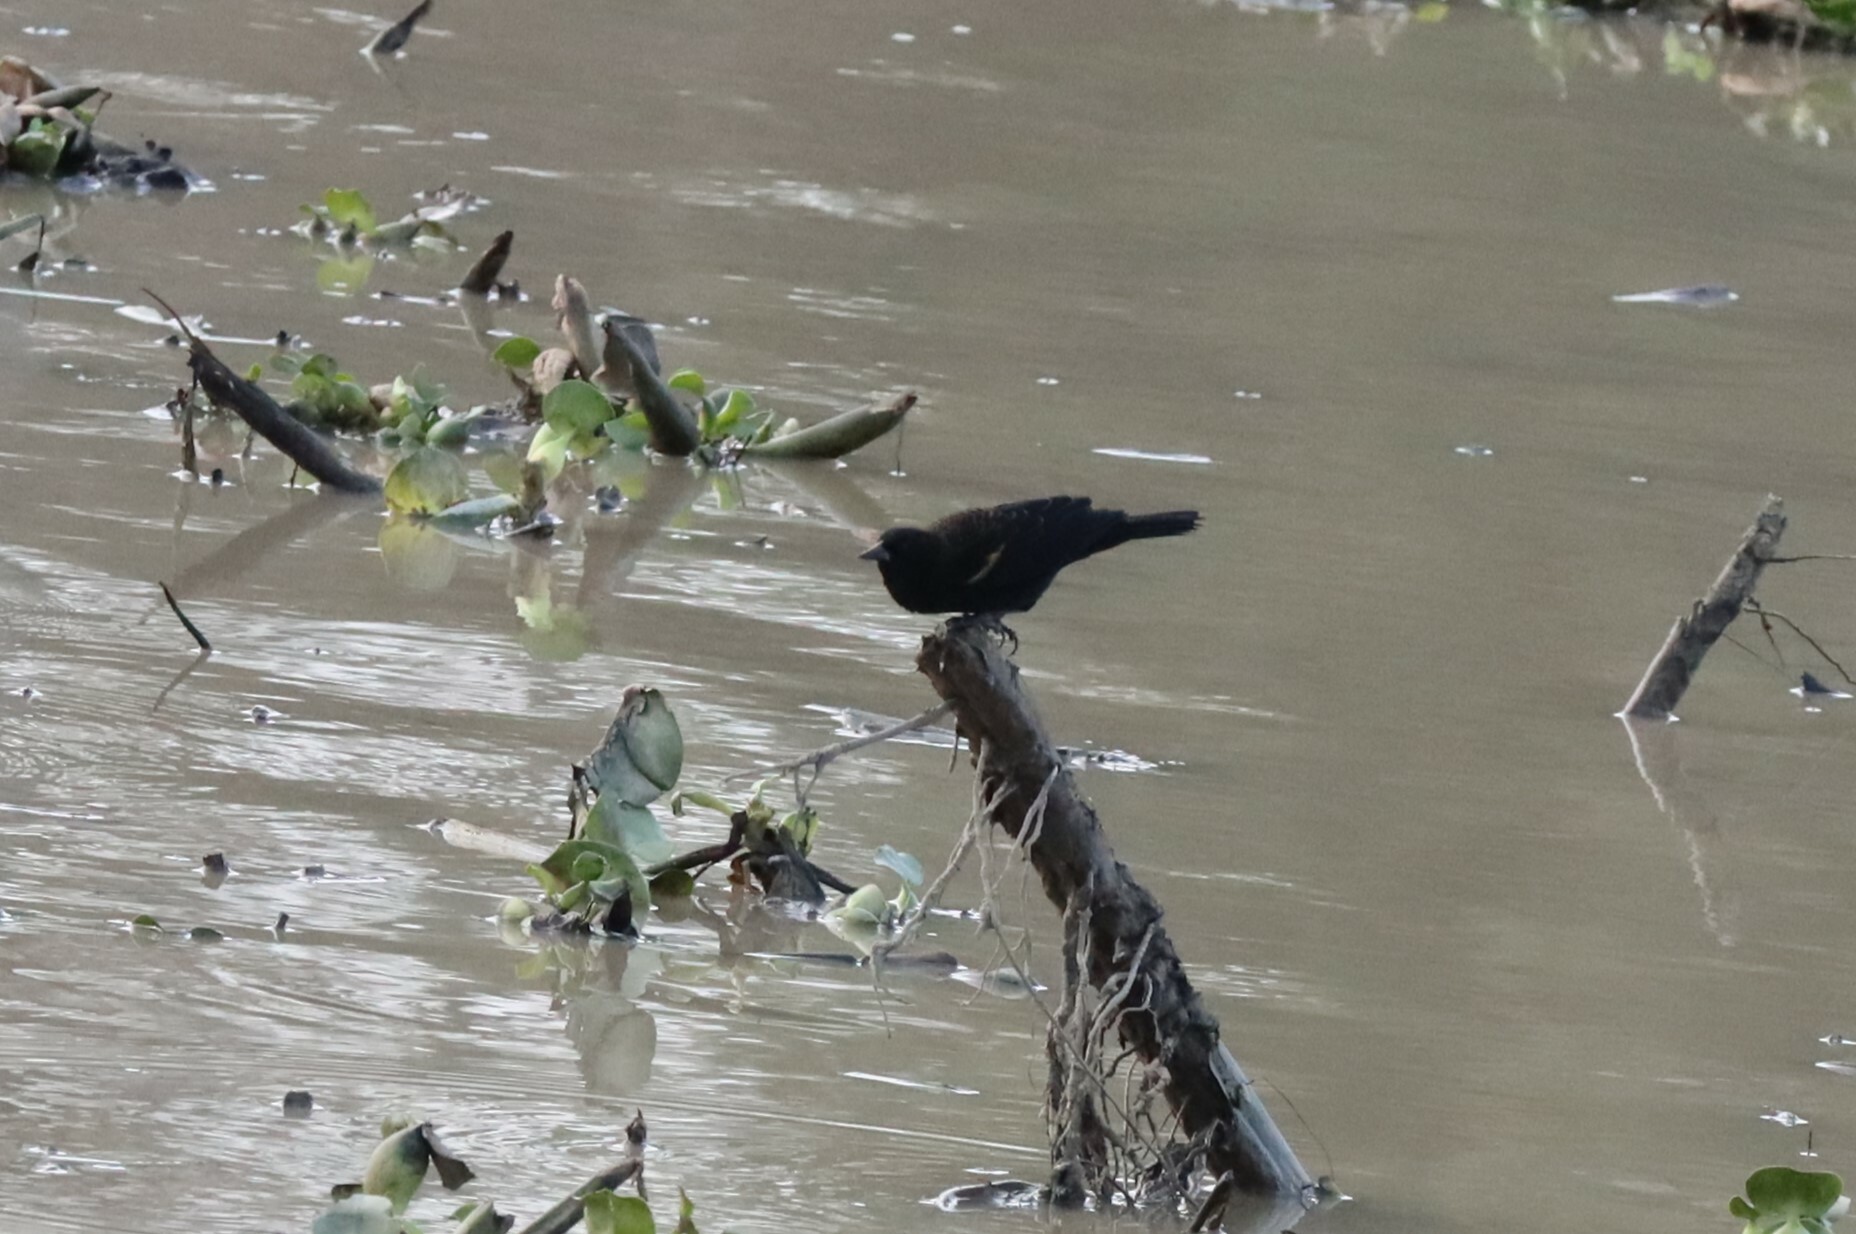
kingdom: Animalia
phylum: Chordata
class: Aves
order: Passeriformes
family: Icteridae
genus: Agelaius
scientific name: Agelaius phoeniceus
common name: Red-winged blackbird
